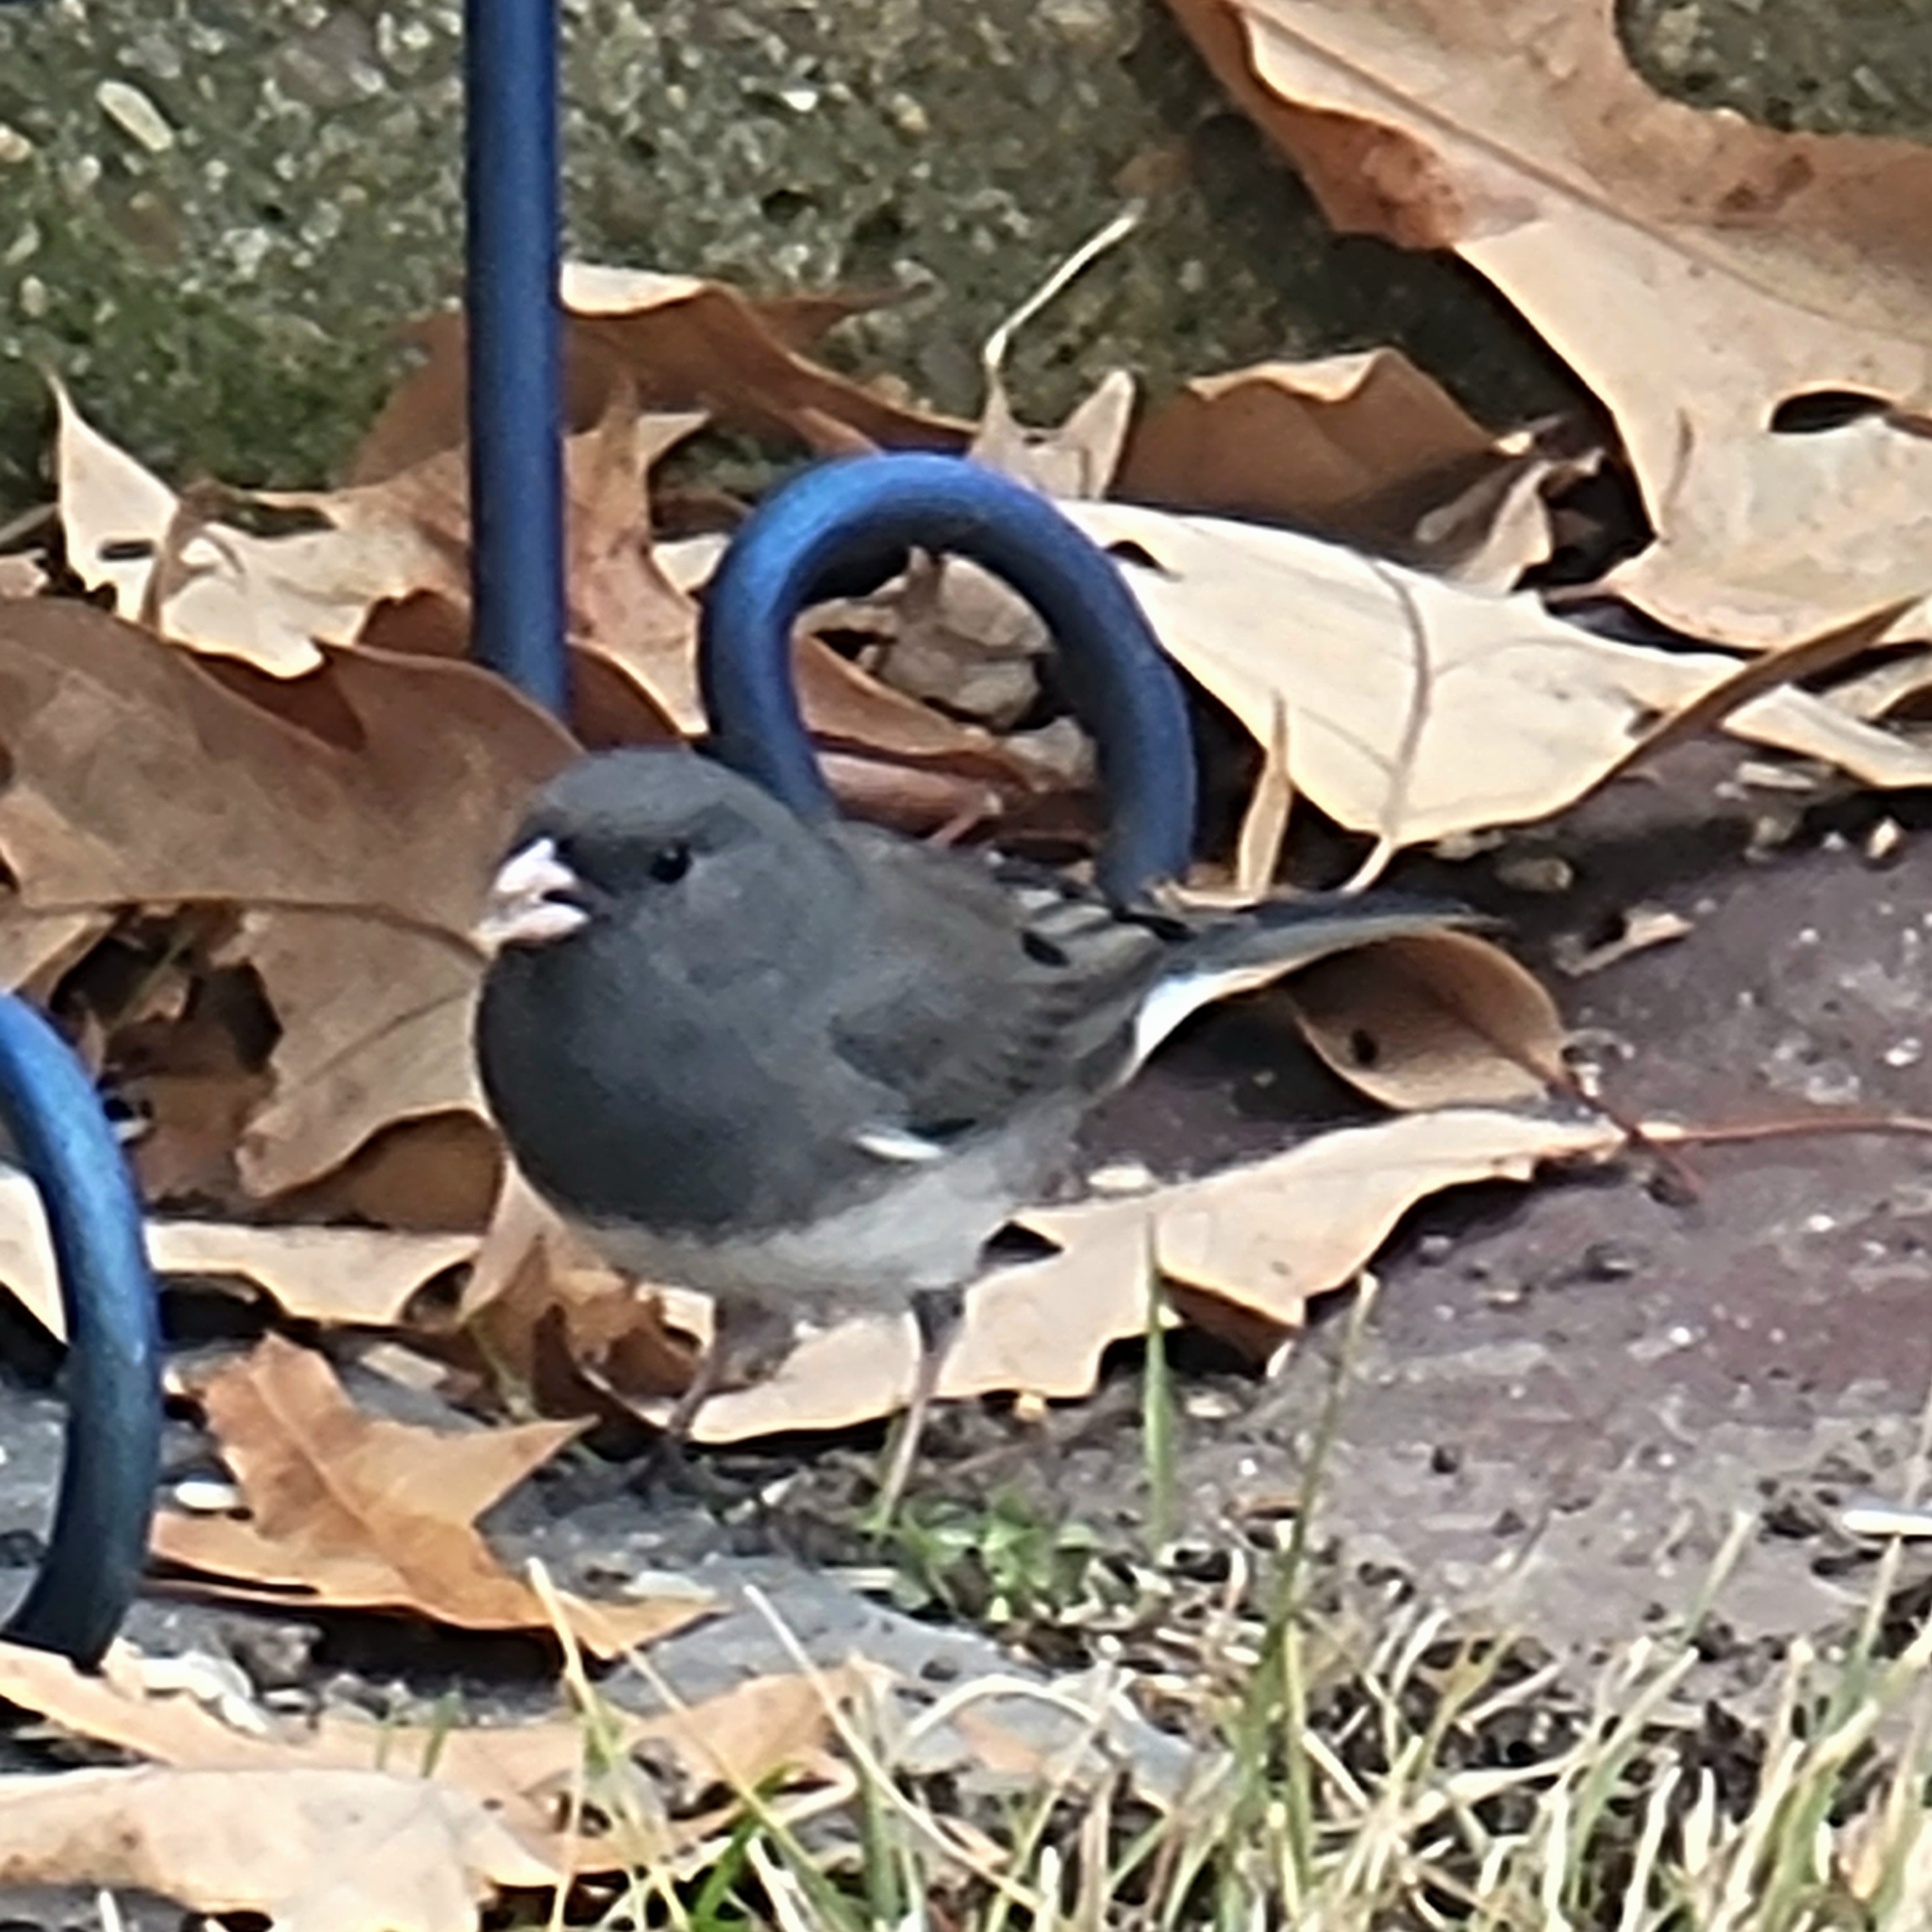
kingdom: Animalia
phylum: Chordata
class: Aves
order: Passeriformes
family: Passerellidae
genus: Junco
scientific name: Junco hyemalis
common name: Dark-eyed junco
